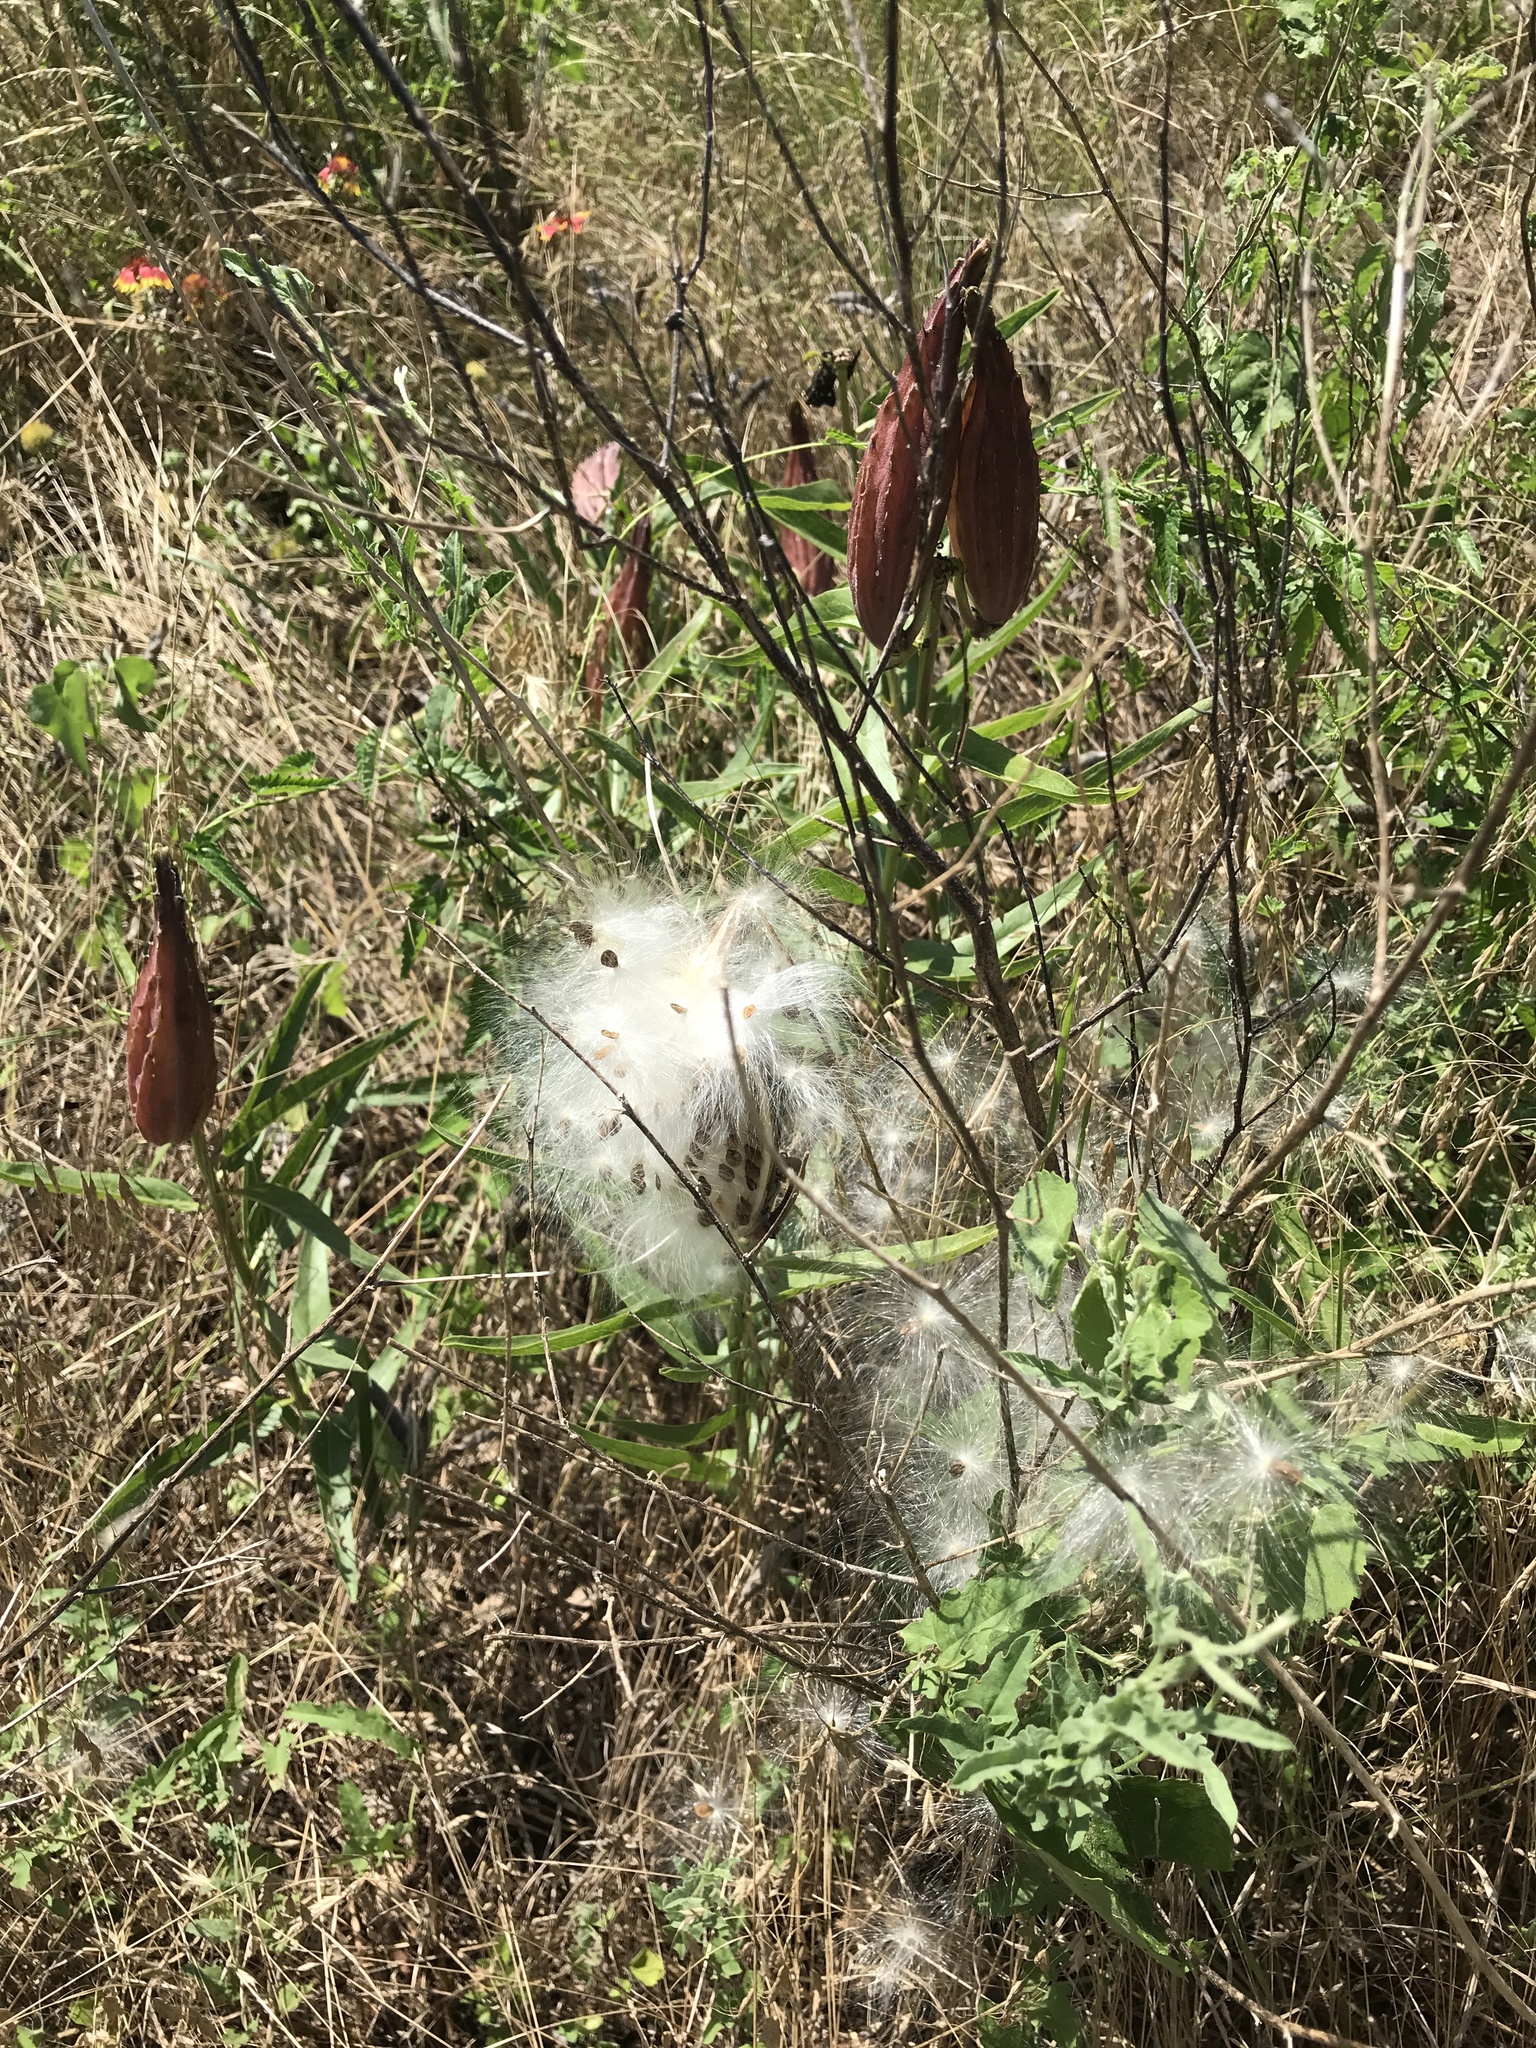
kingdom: Plantae
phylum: Tracheophyta
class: Magnoliopsida
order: Gentianales
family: Apocynaceae
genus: Asclepias
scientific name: Asclepias asperula
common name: Antelope horns
